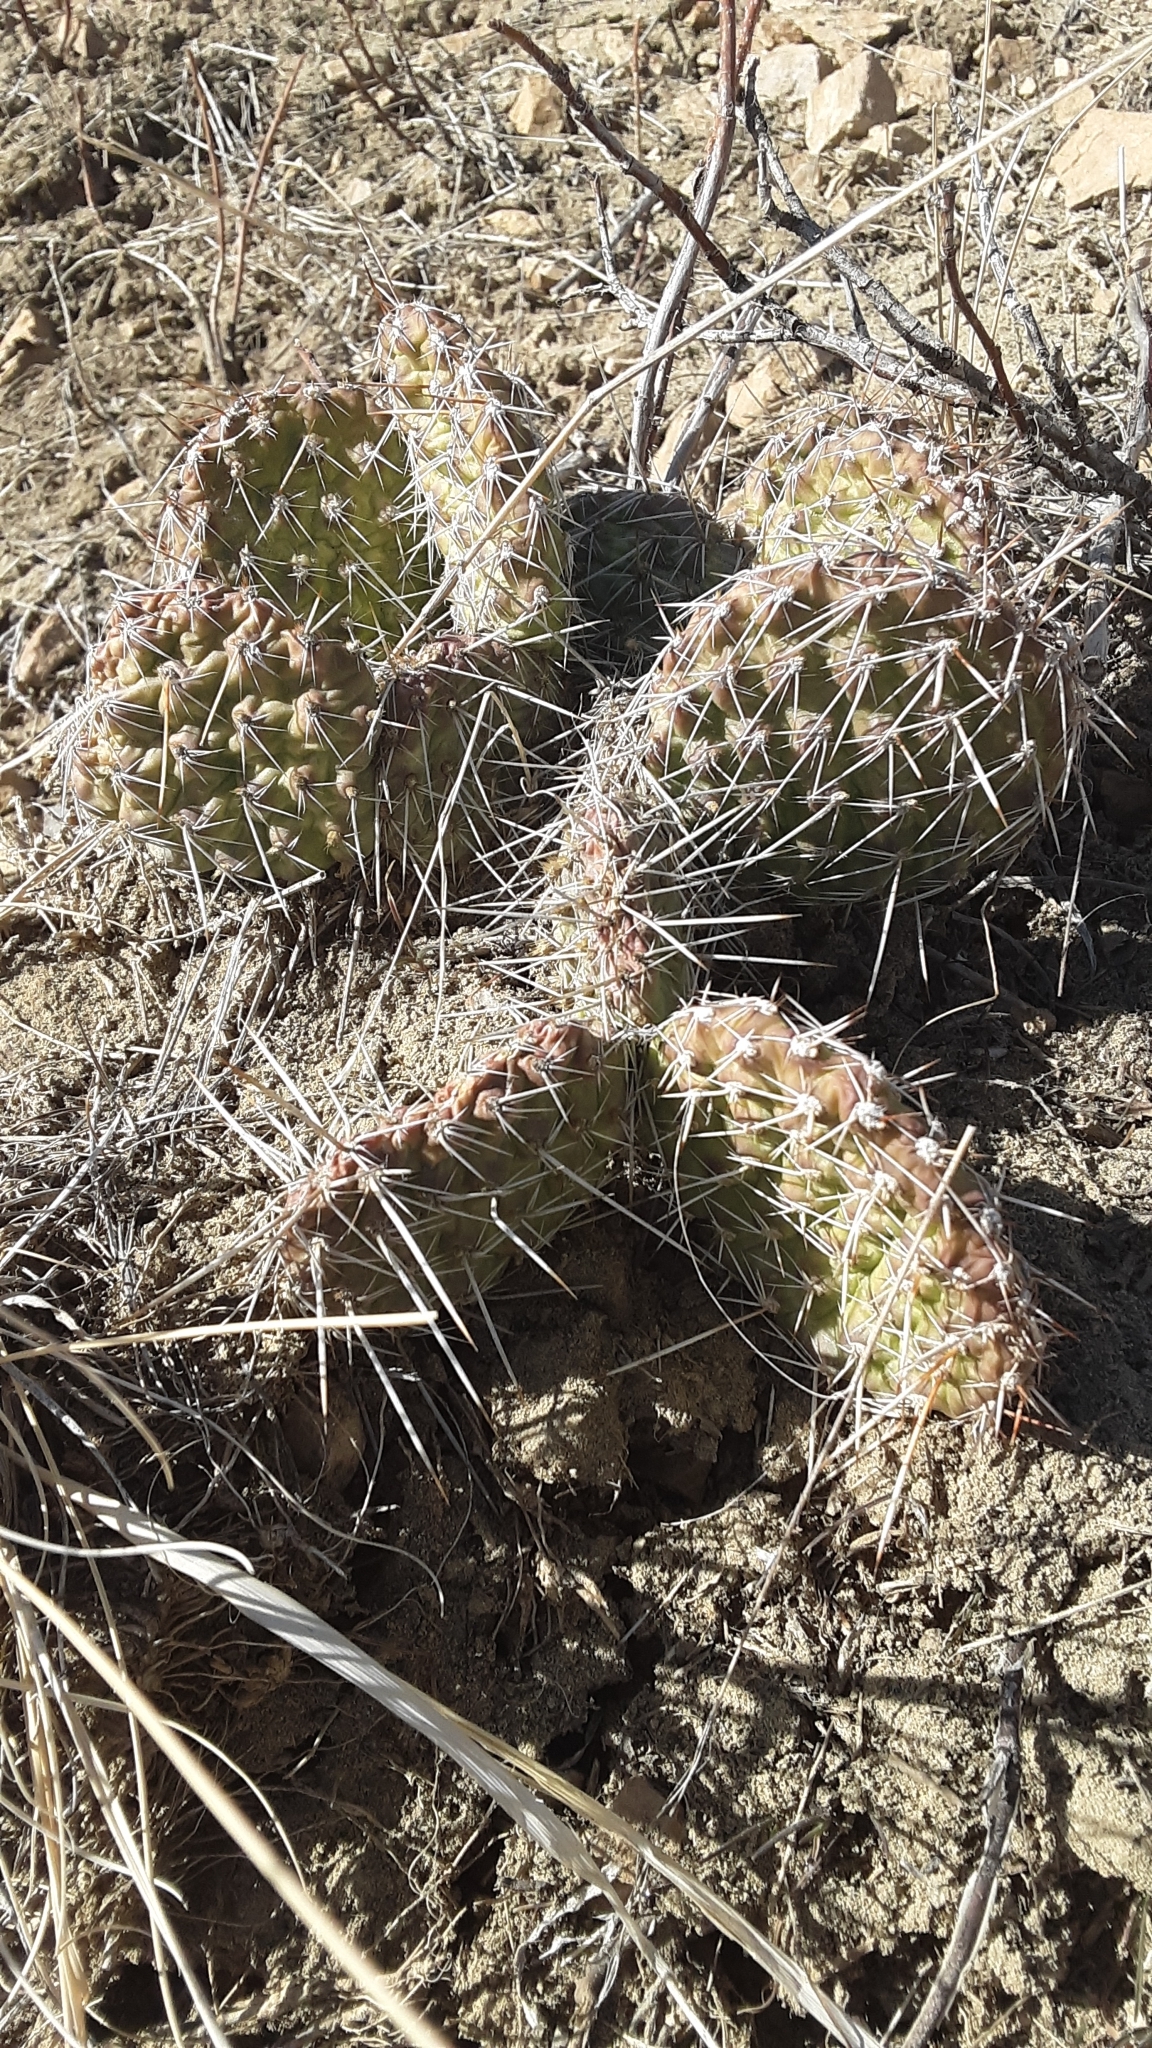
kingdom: Plantae
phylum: Tracheophyta
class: Magnoliopsida
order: Caryophyllales
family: Cactaceae
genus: Opuntia
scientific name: Opuntia polyacantha
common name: Plains prickly-pear
